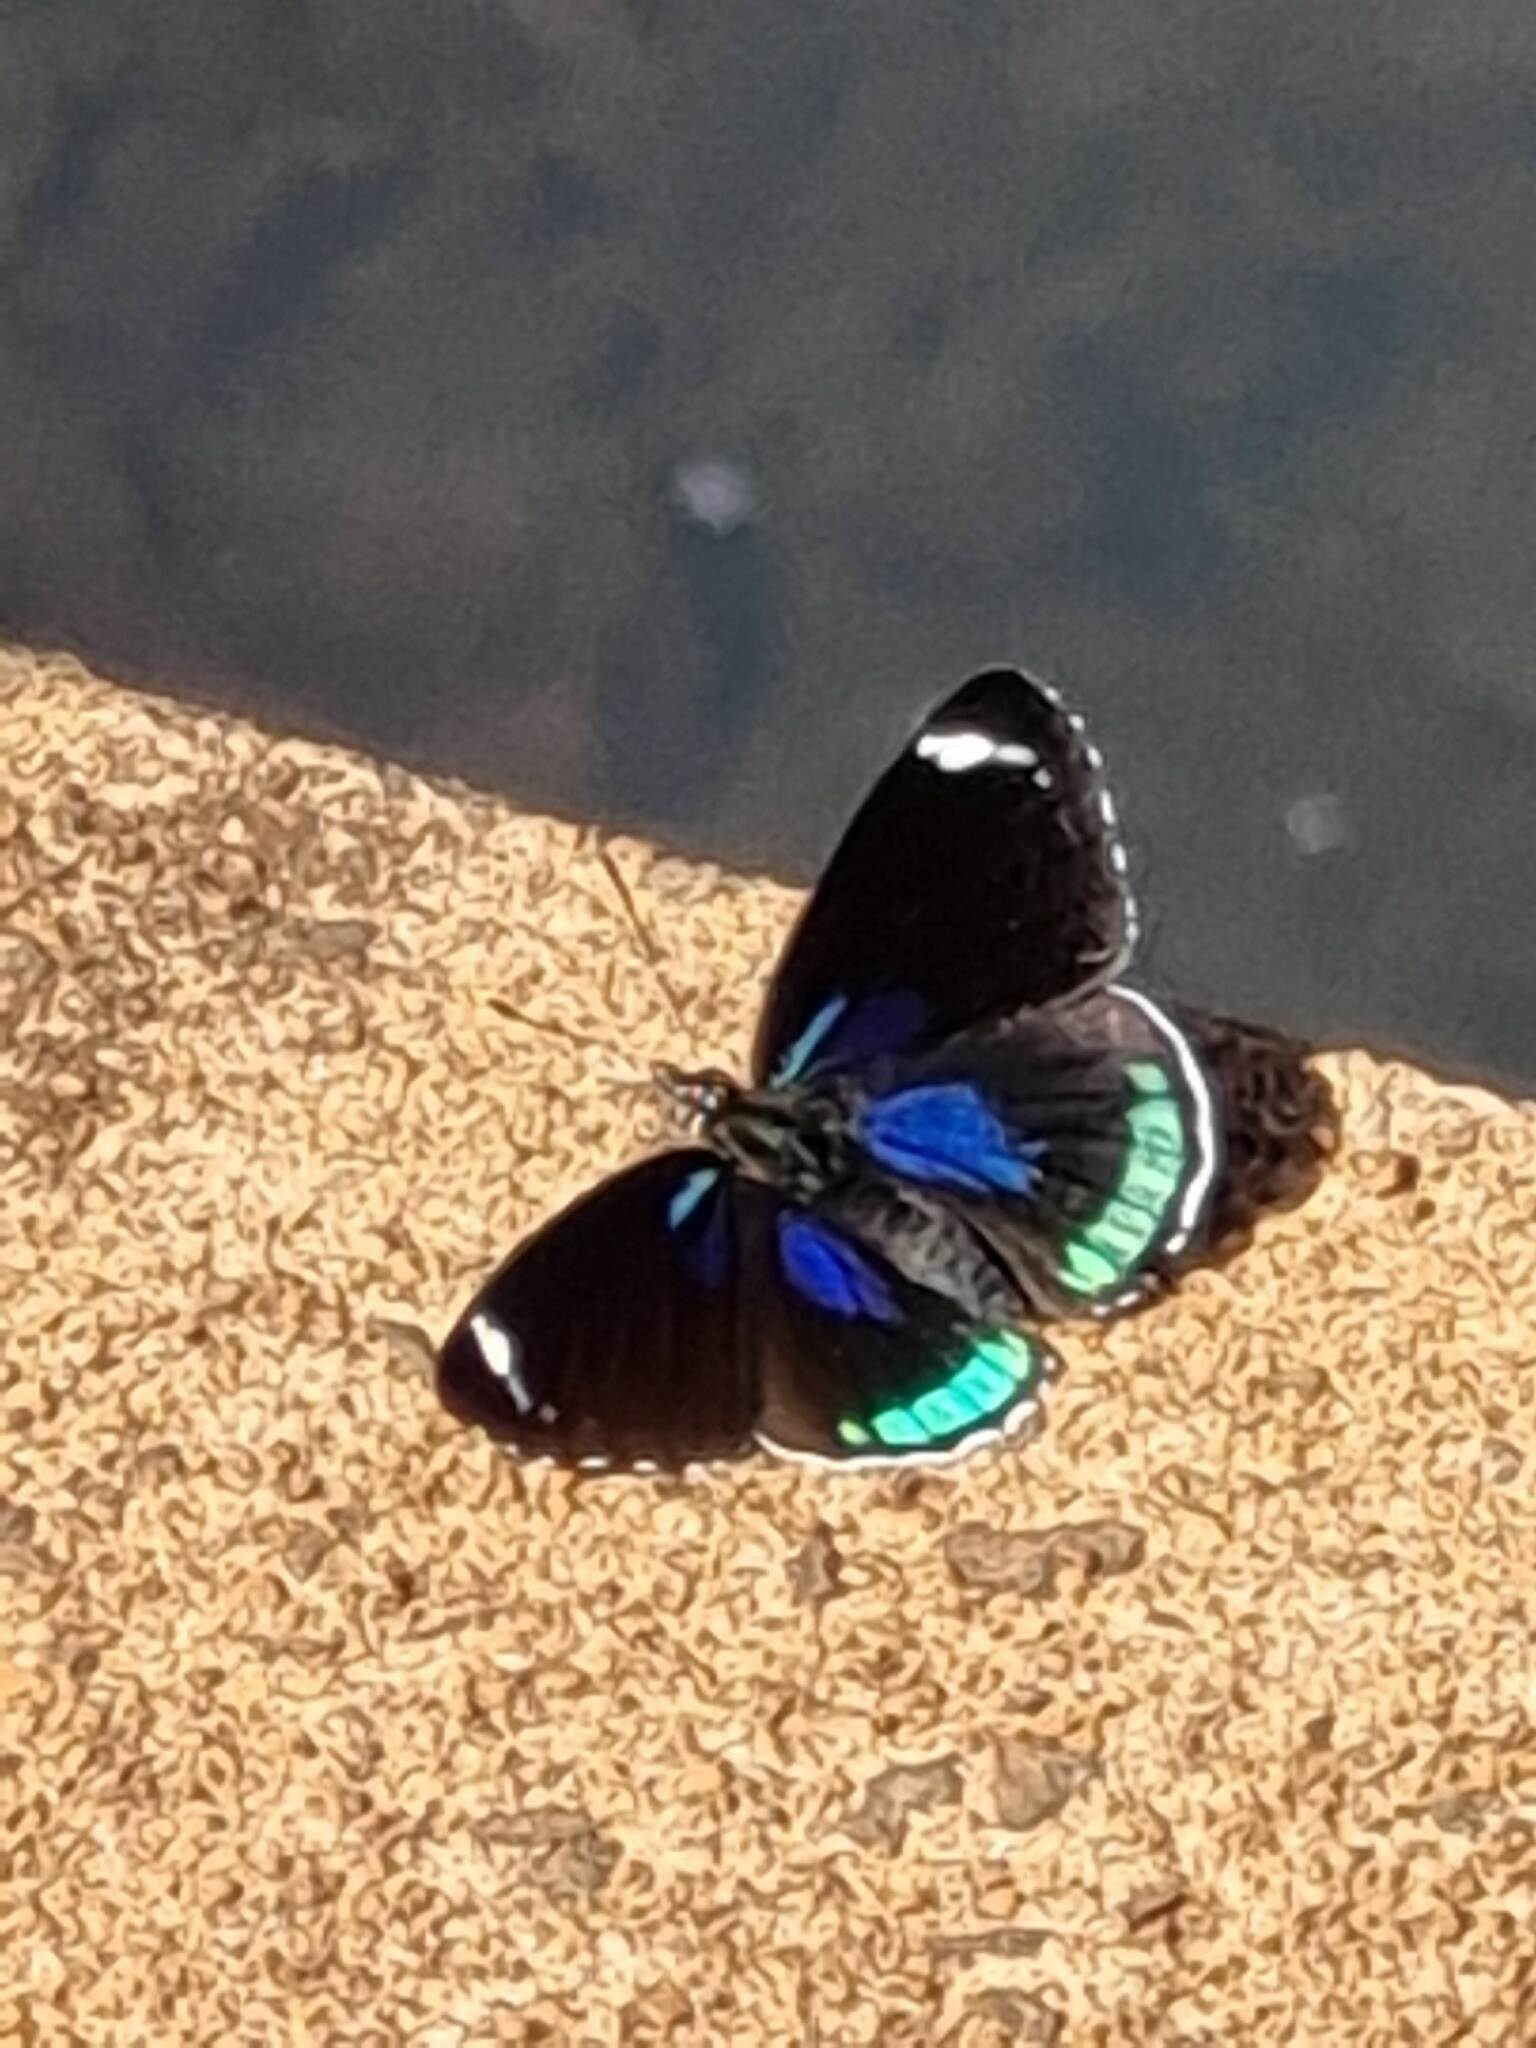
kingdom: Animalia
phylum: Arthropoda
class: Insecta
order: Lepidoptera
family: Nymphalidae
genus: Diaethria
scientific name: Diaethria candrena
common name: Number eighty
